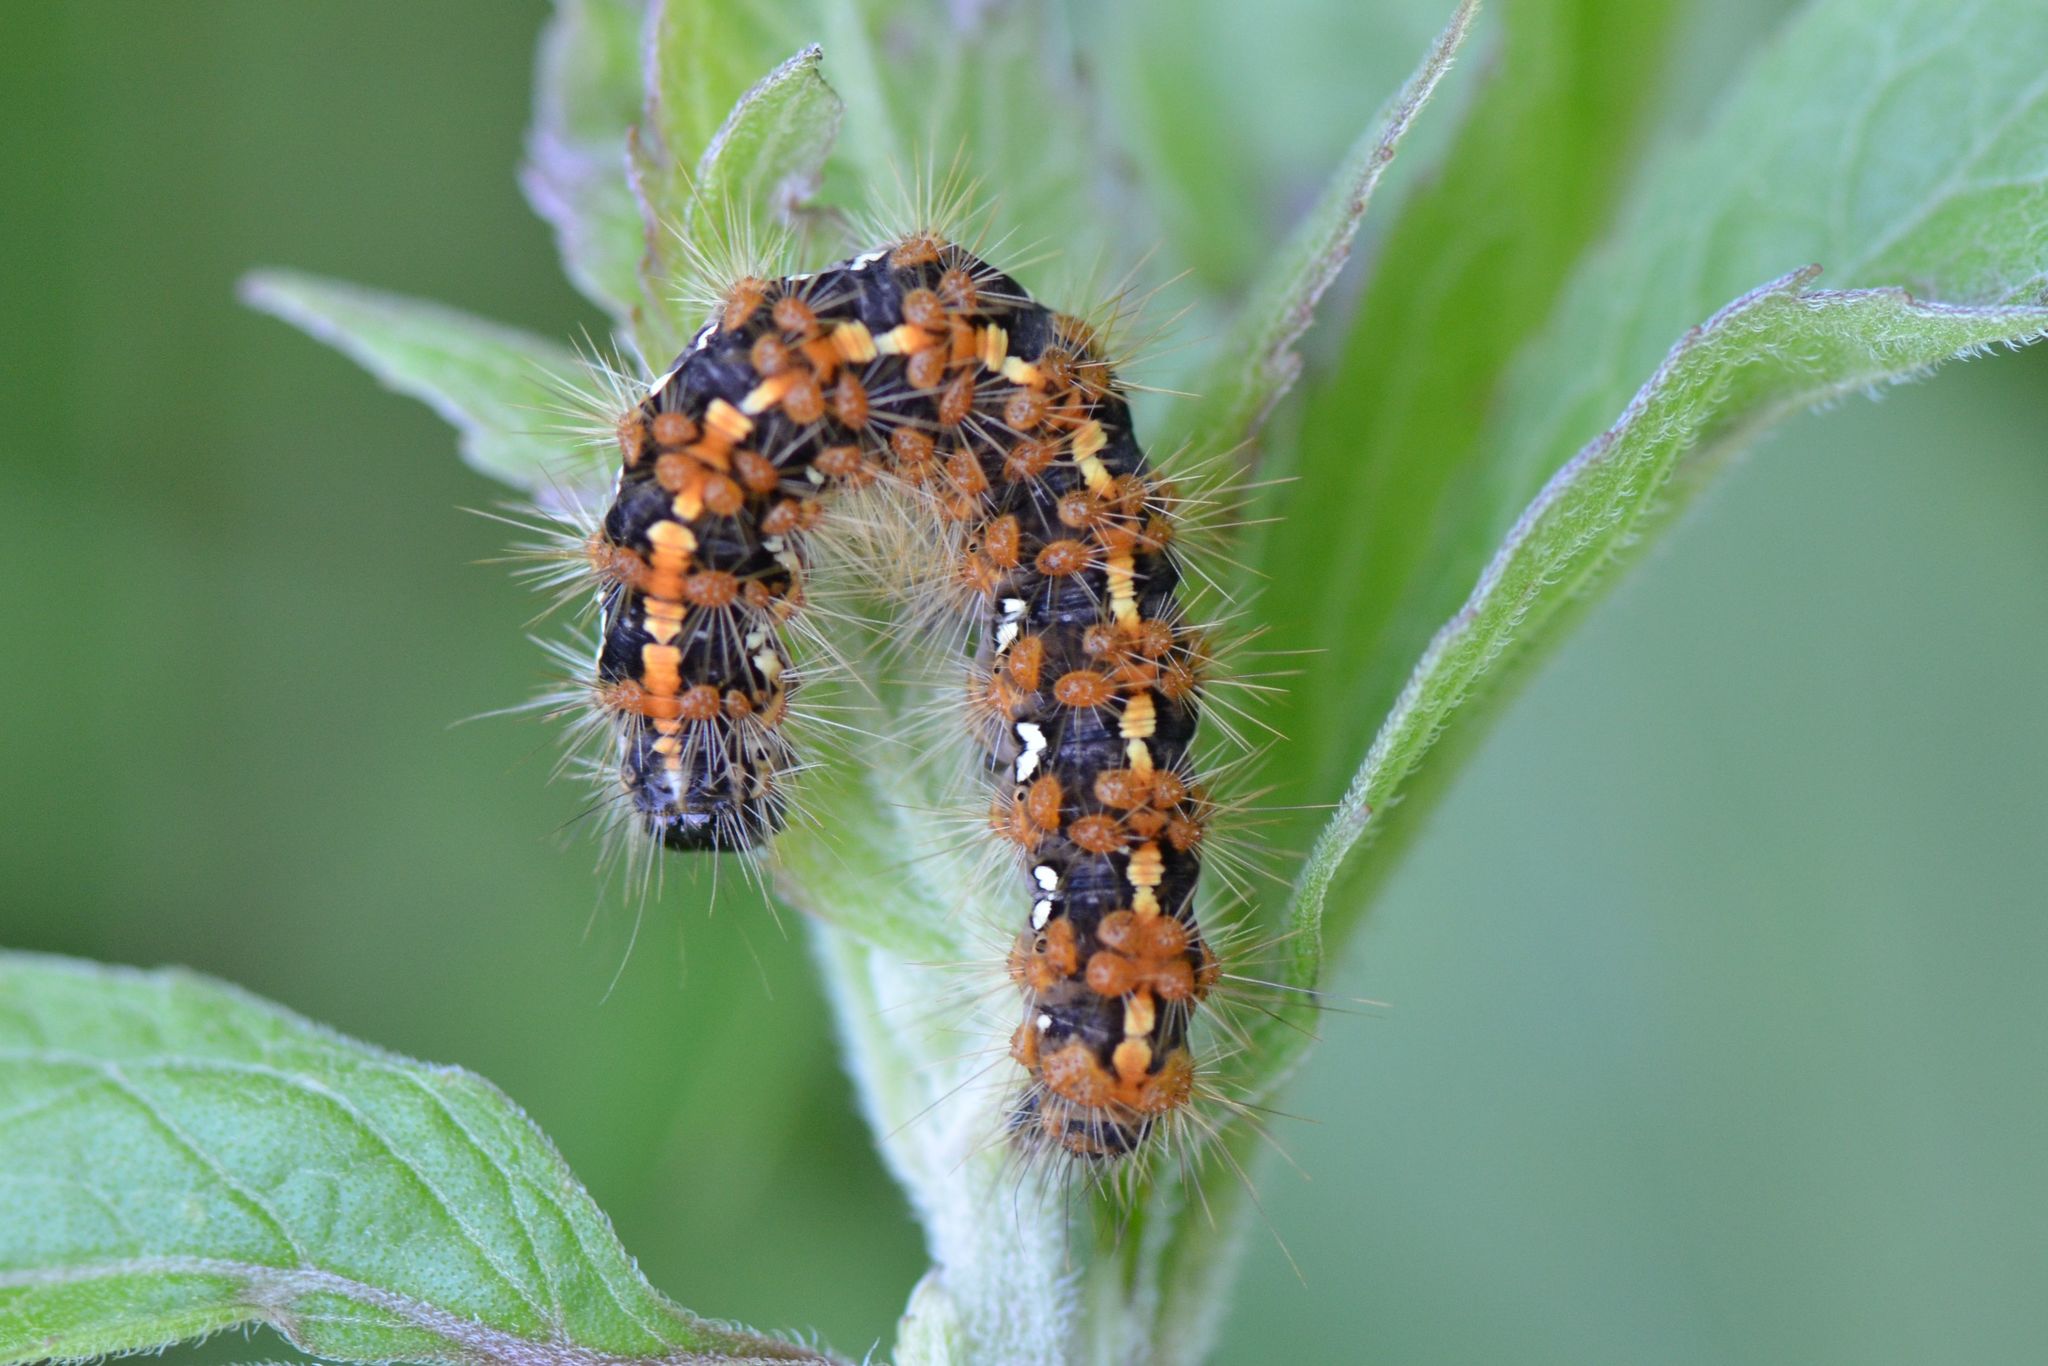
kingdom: Animalia
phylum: Arthropoda
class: Insecta
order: Lepidoptera
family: Erebidae
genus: Euplagia
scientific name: Euplagia quadripunctaria
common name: Jersey tiger
